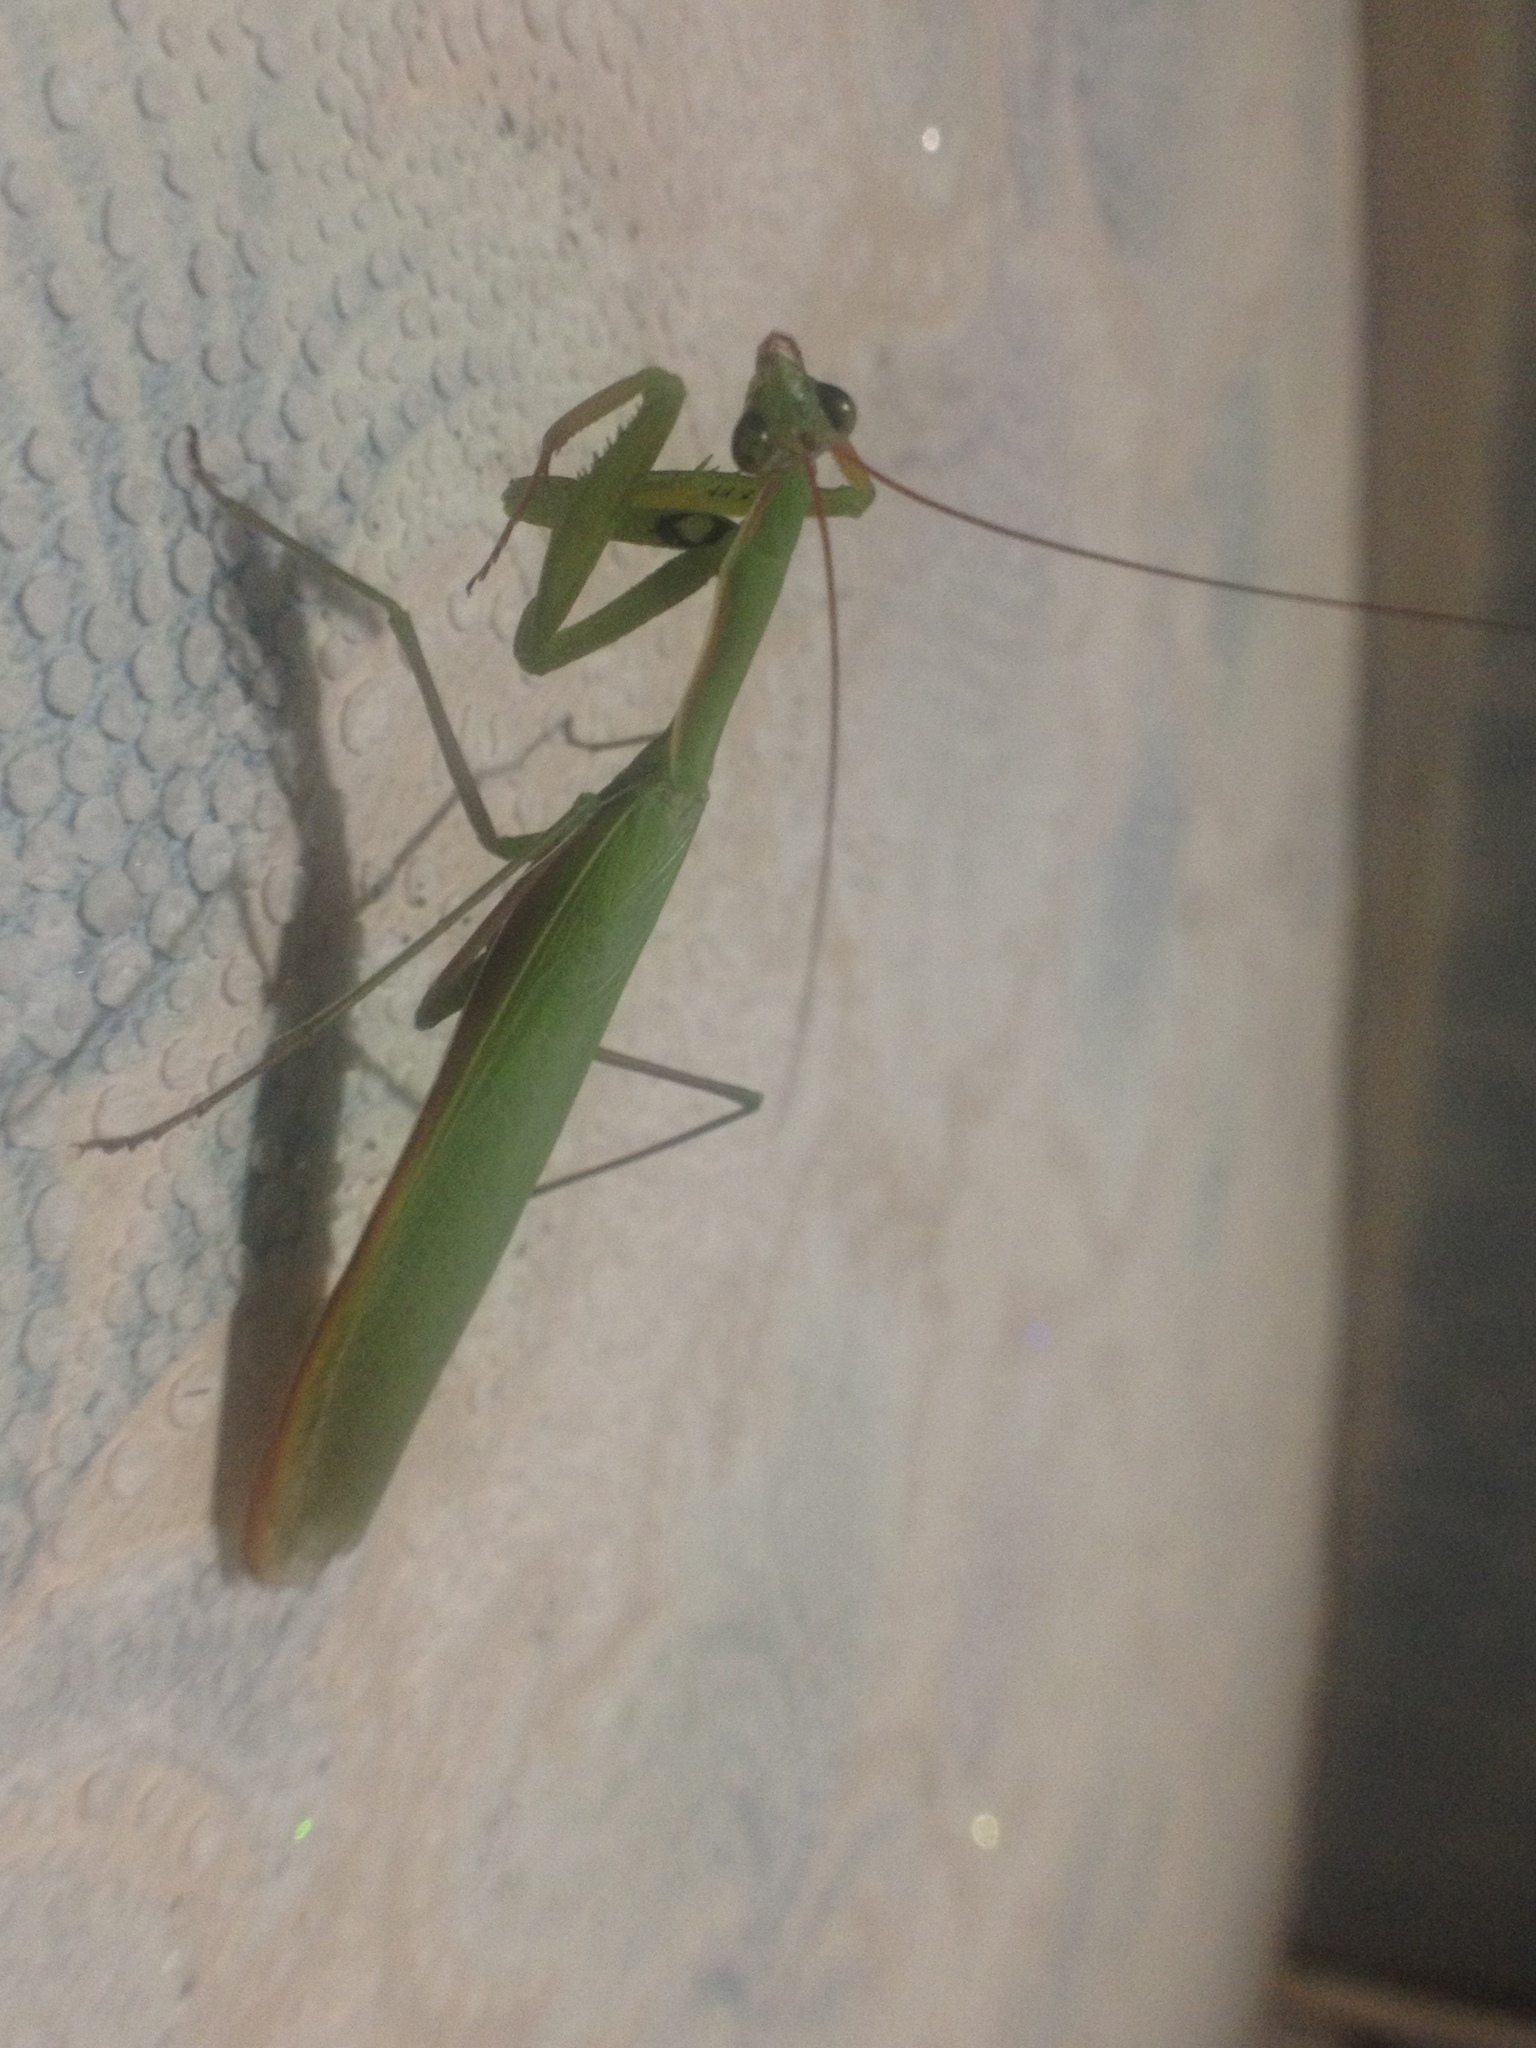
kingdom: Animalia
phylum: Arthropoda
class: Insecta
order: Mantodea
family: Mantidae
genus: Mantis
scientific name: Mantis religiosa
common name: Praying mantis
